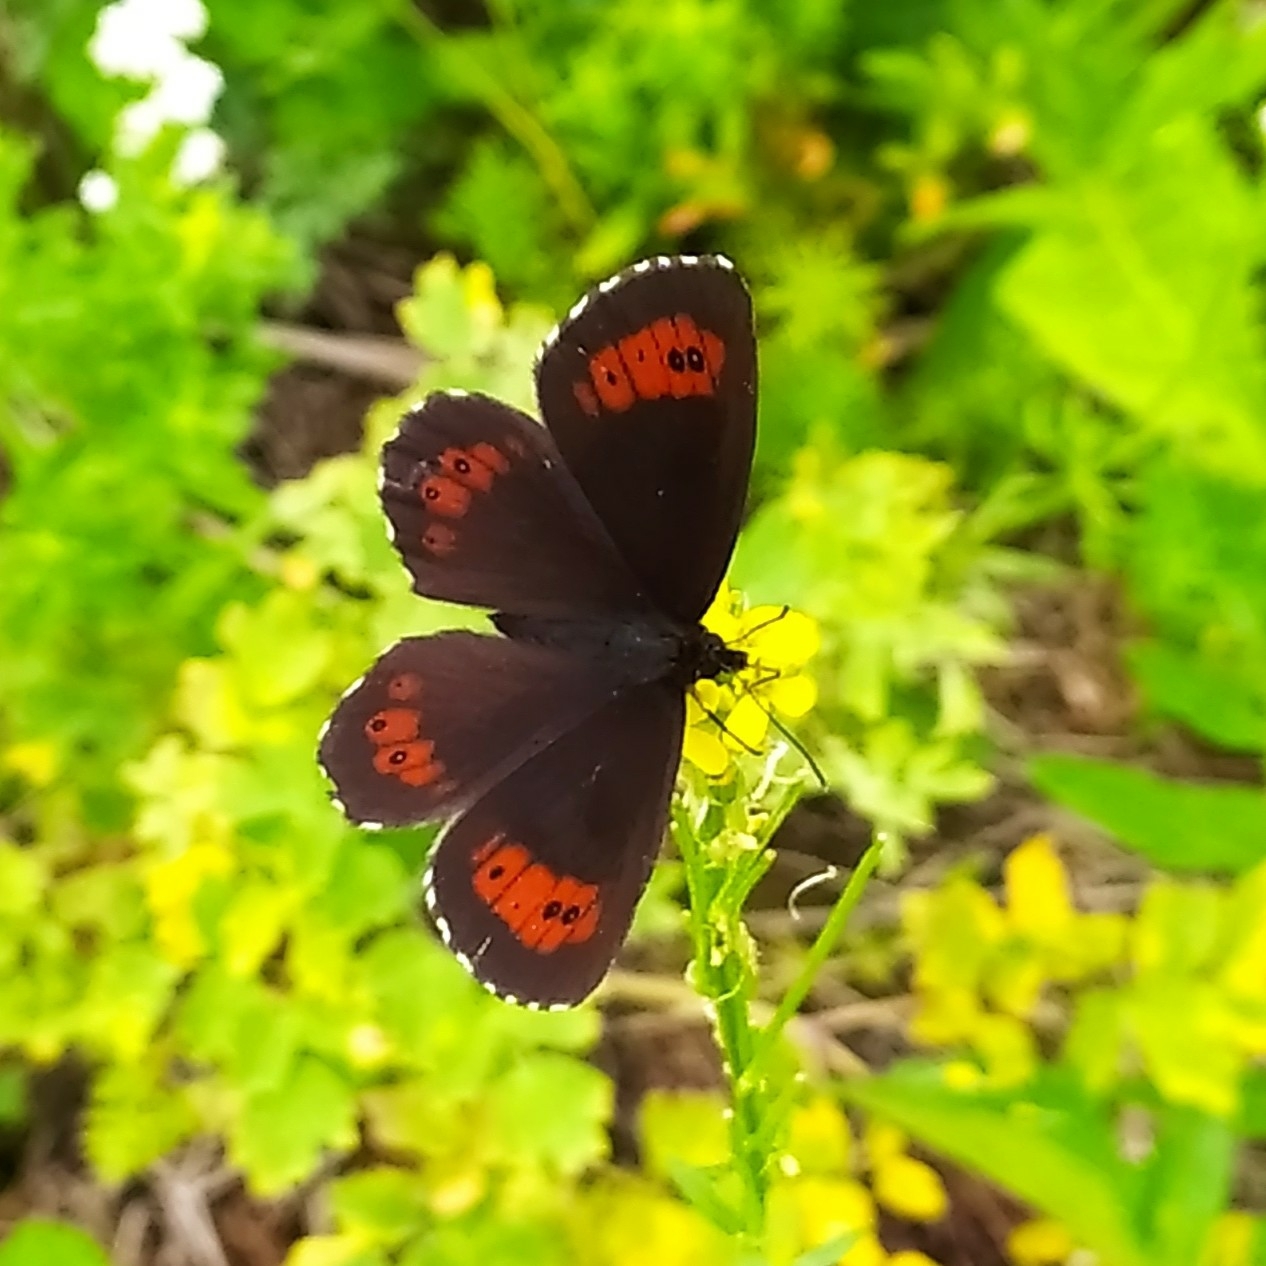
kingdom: Animalia
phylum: Arthropoda
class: Insecta
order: Lepidoptera
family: Nymphalidae
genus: Erebia
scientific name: Erebia ligea
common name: Arran brown
